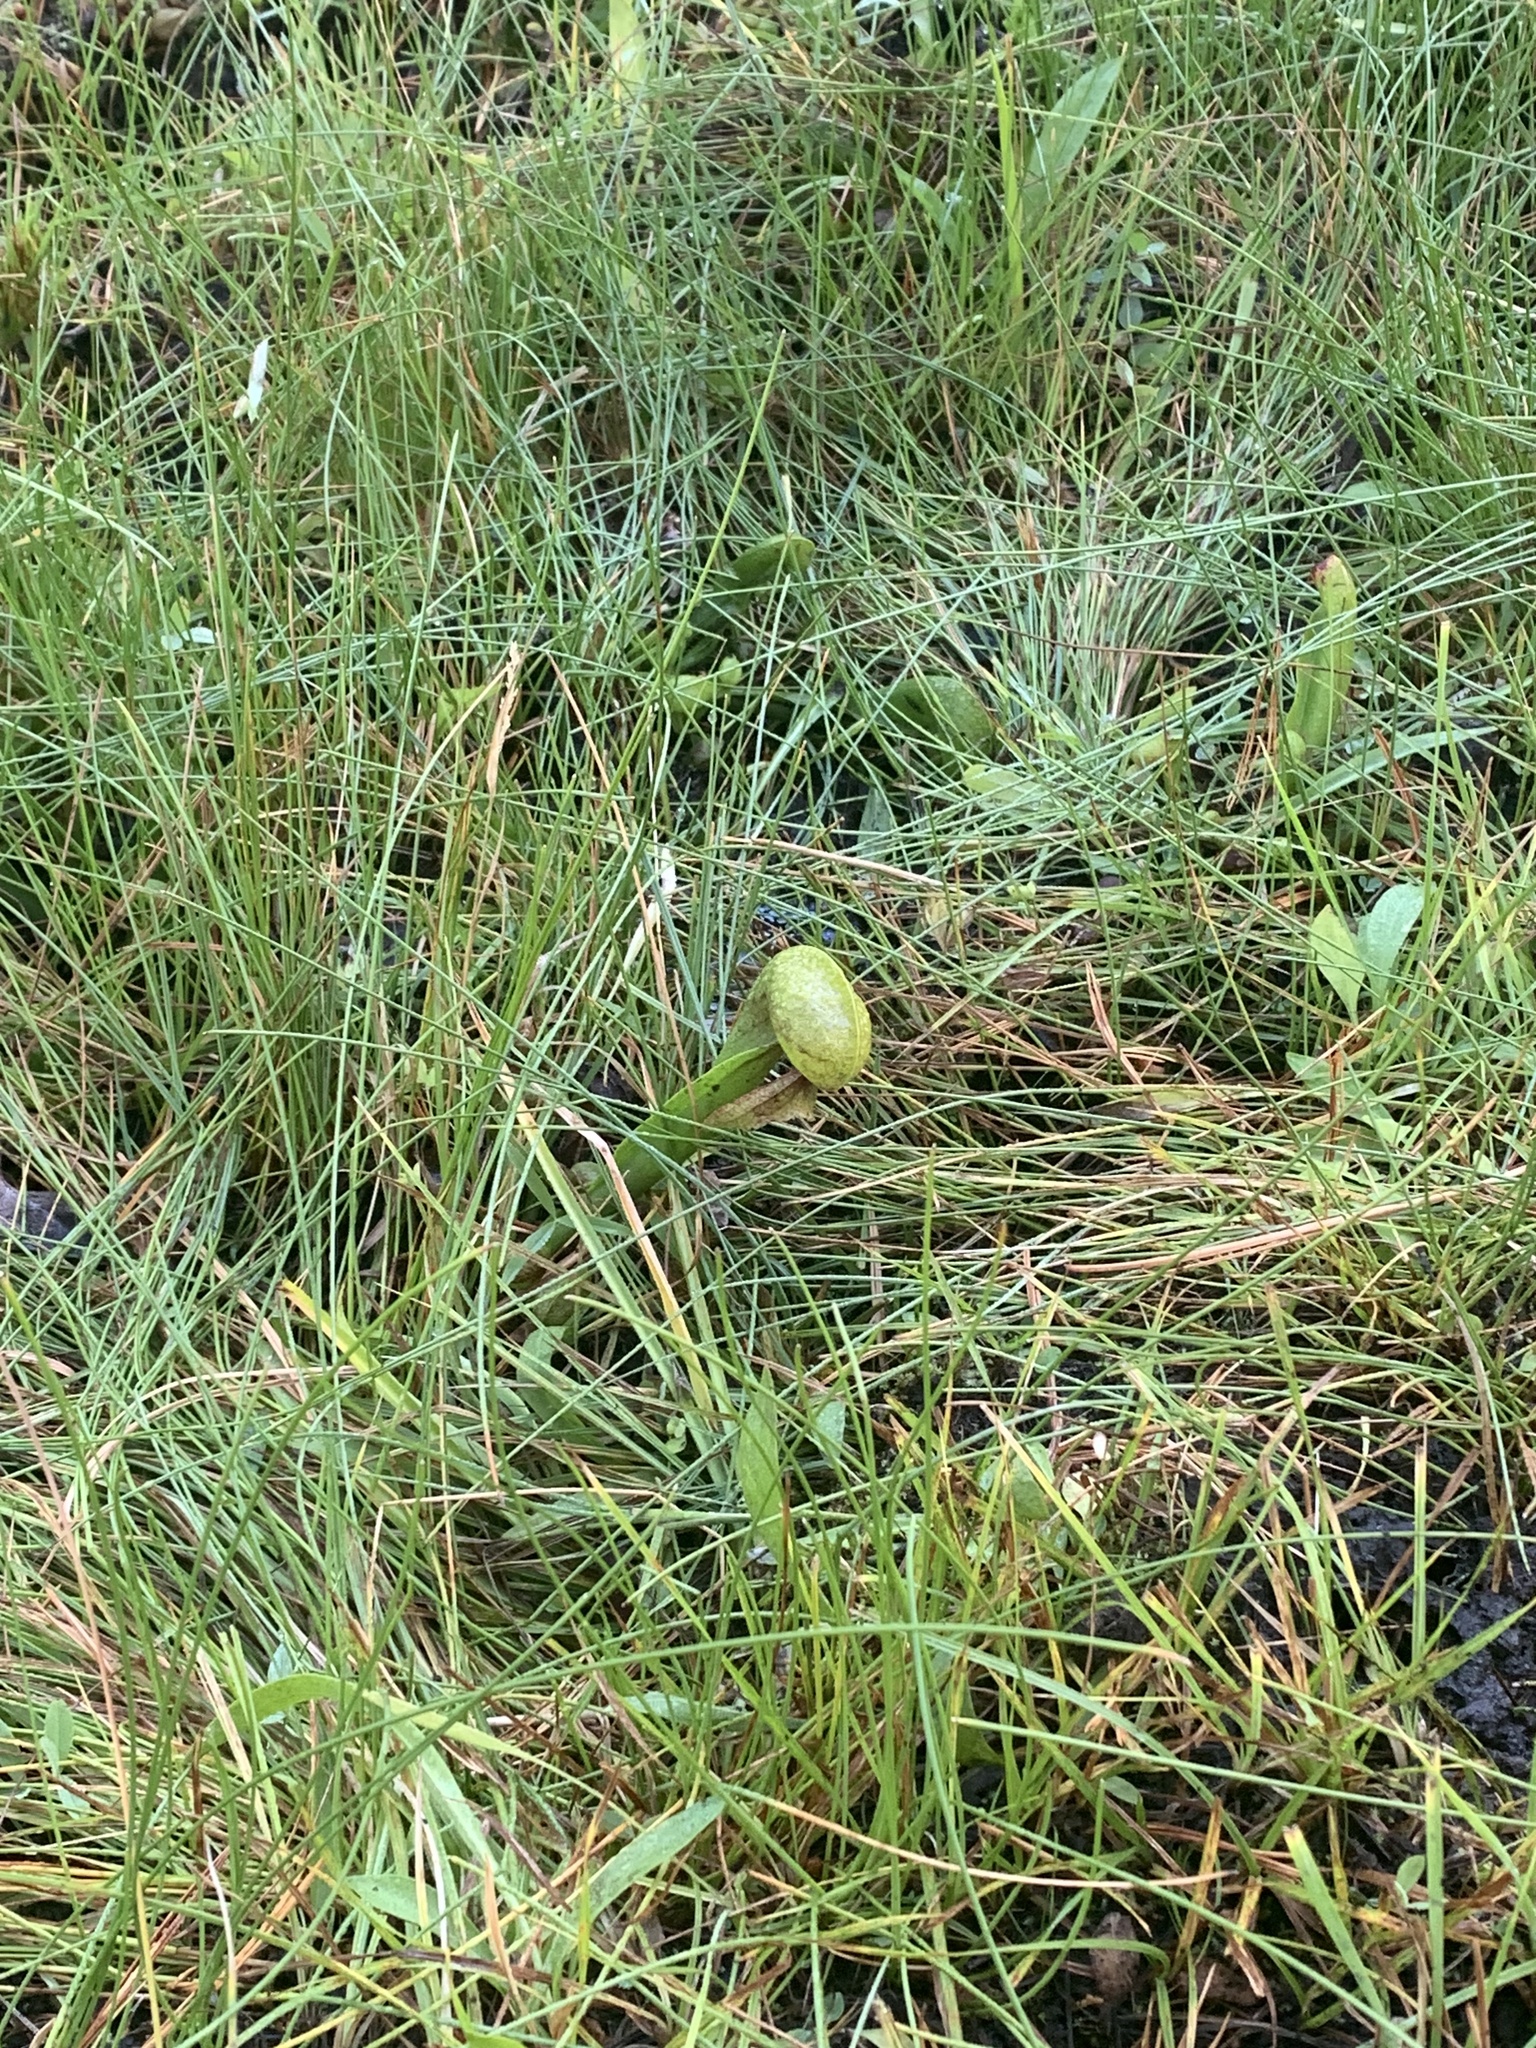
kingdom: Plantae
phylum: Tracheophyta
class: Magnoliopsida
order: Ericales
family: Sarraceniaceae
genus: Darlingtonia
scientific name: Darlingtonia californica
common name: California pitcher plant
